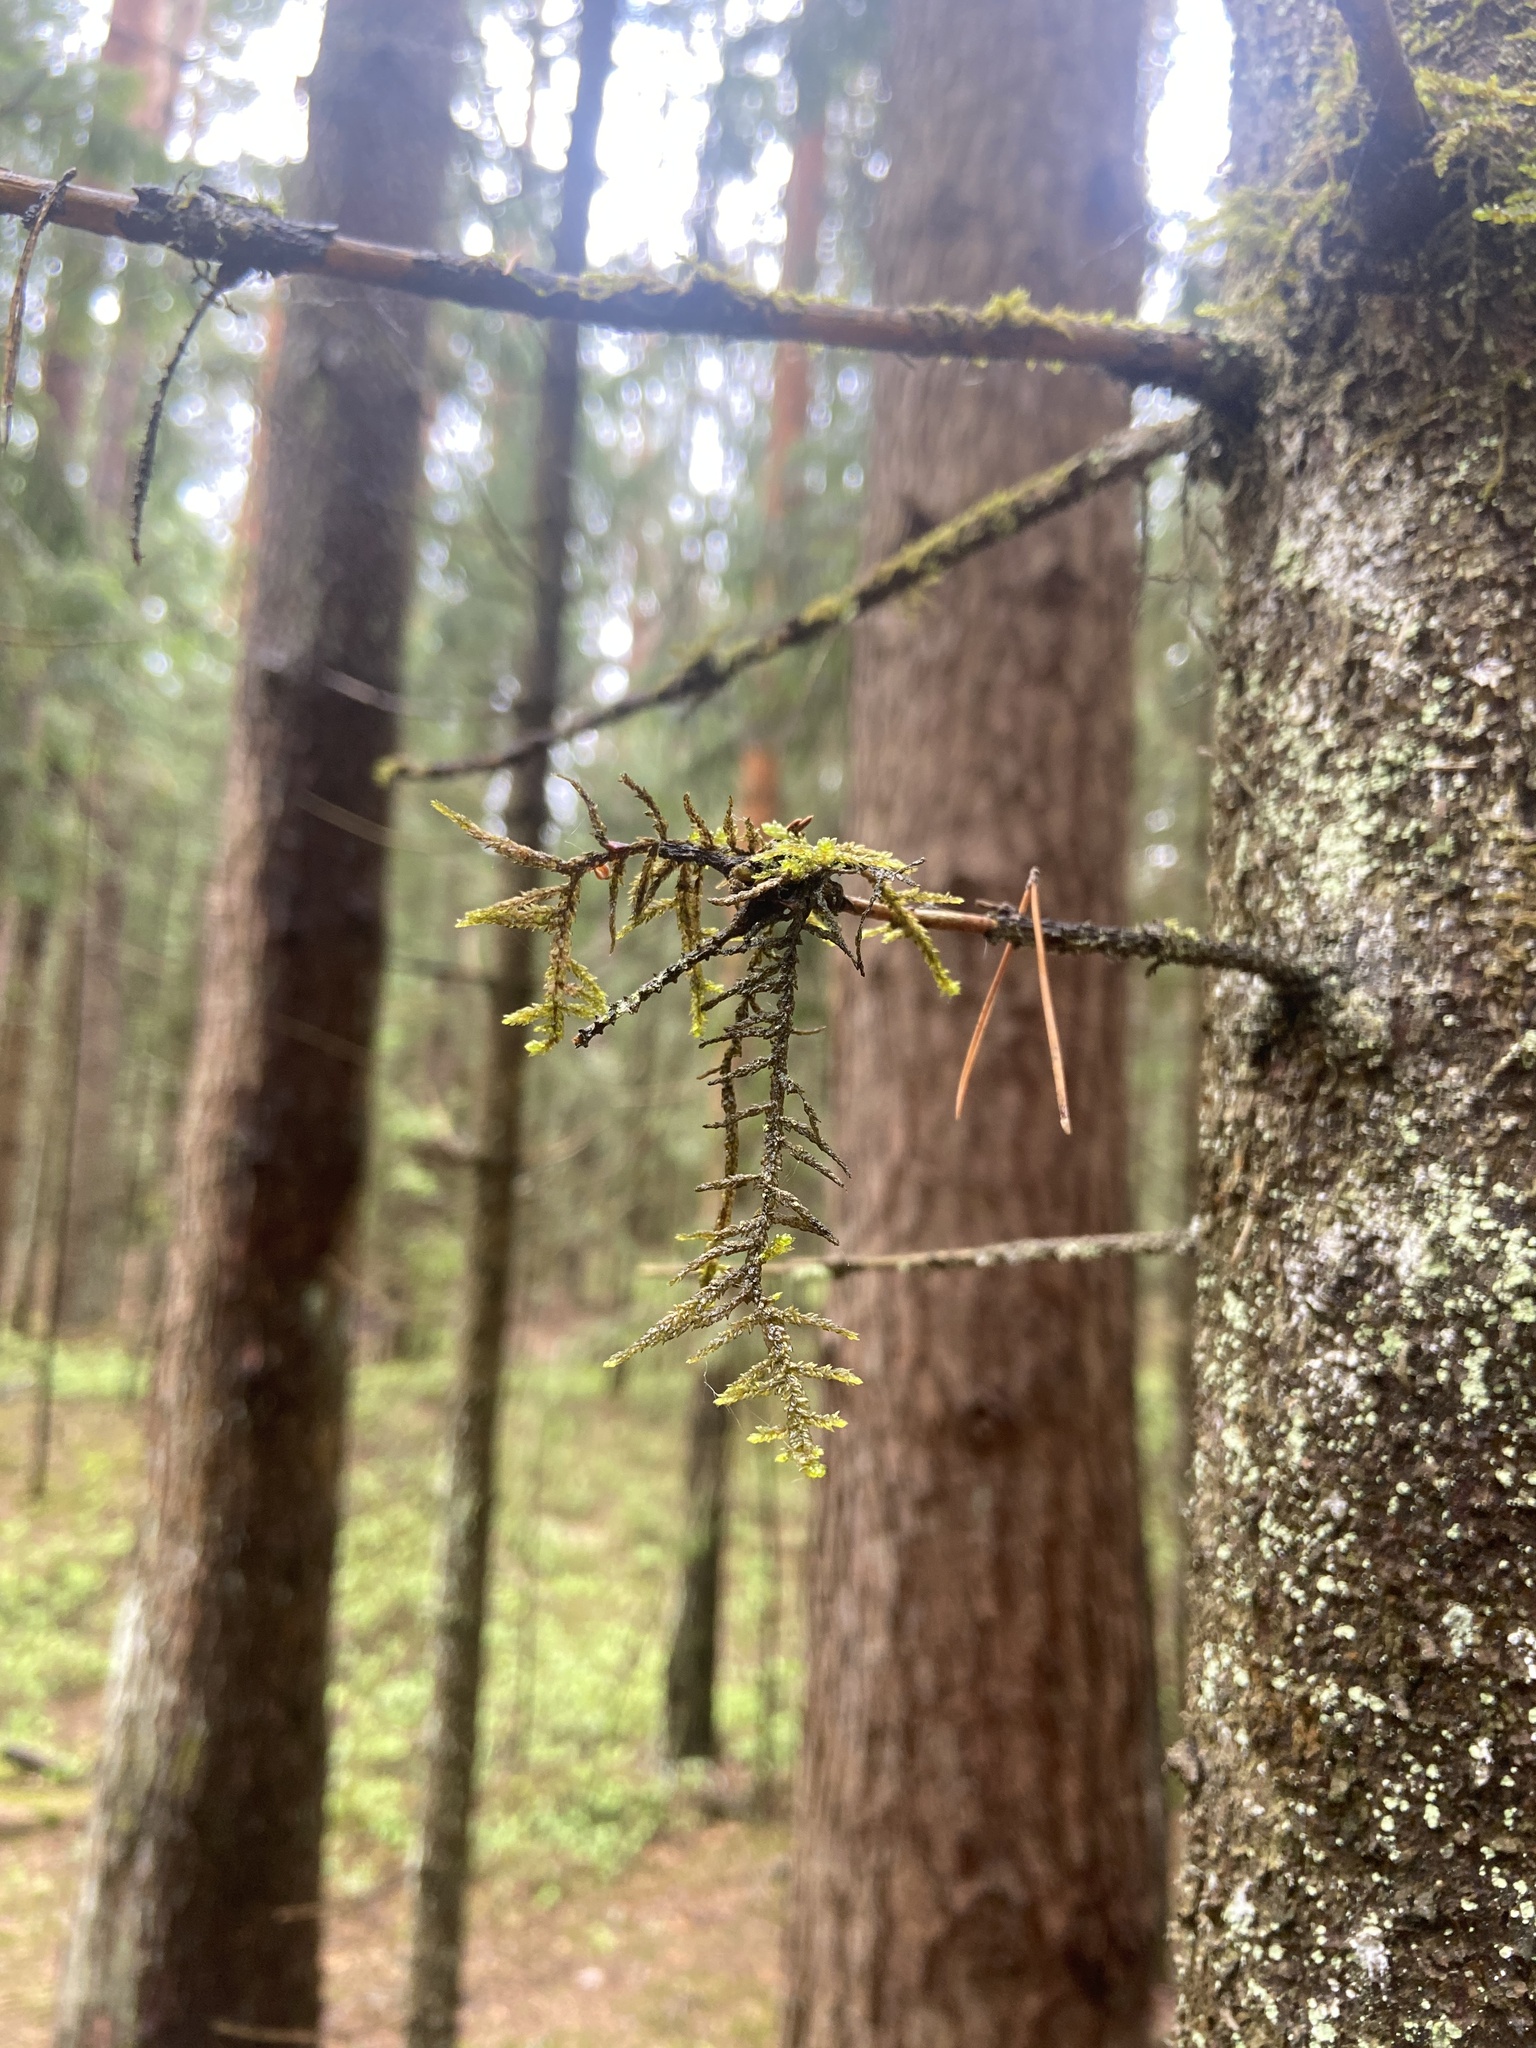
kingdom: Plantae
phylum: Bryophyta
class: Bryopsida
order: Hypnales
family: Hylocomiaceae
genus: Pleurozium
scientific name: Pleurozium schreberi
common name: Red-stemmed feather moss
